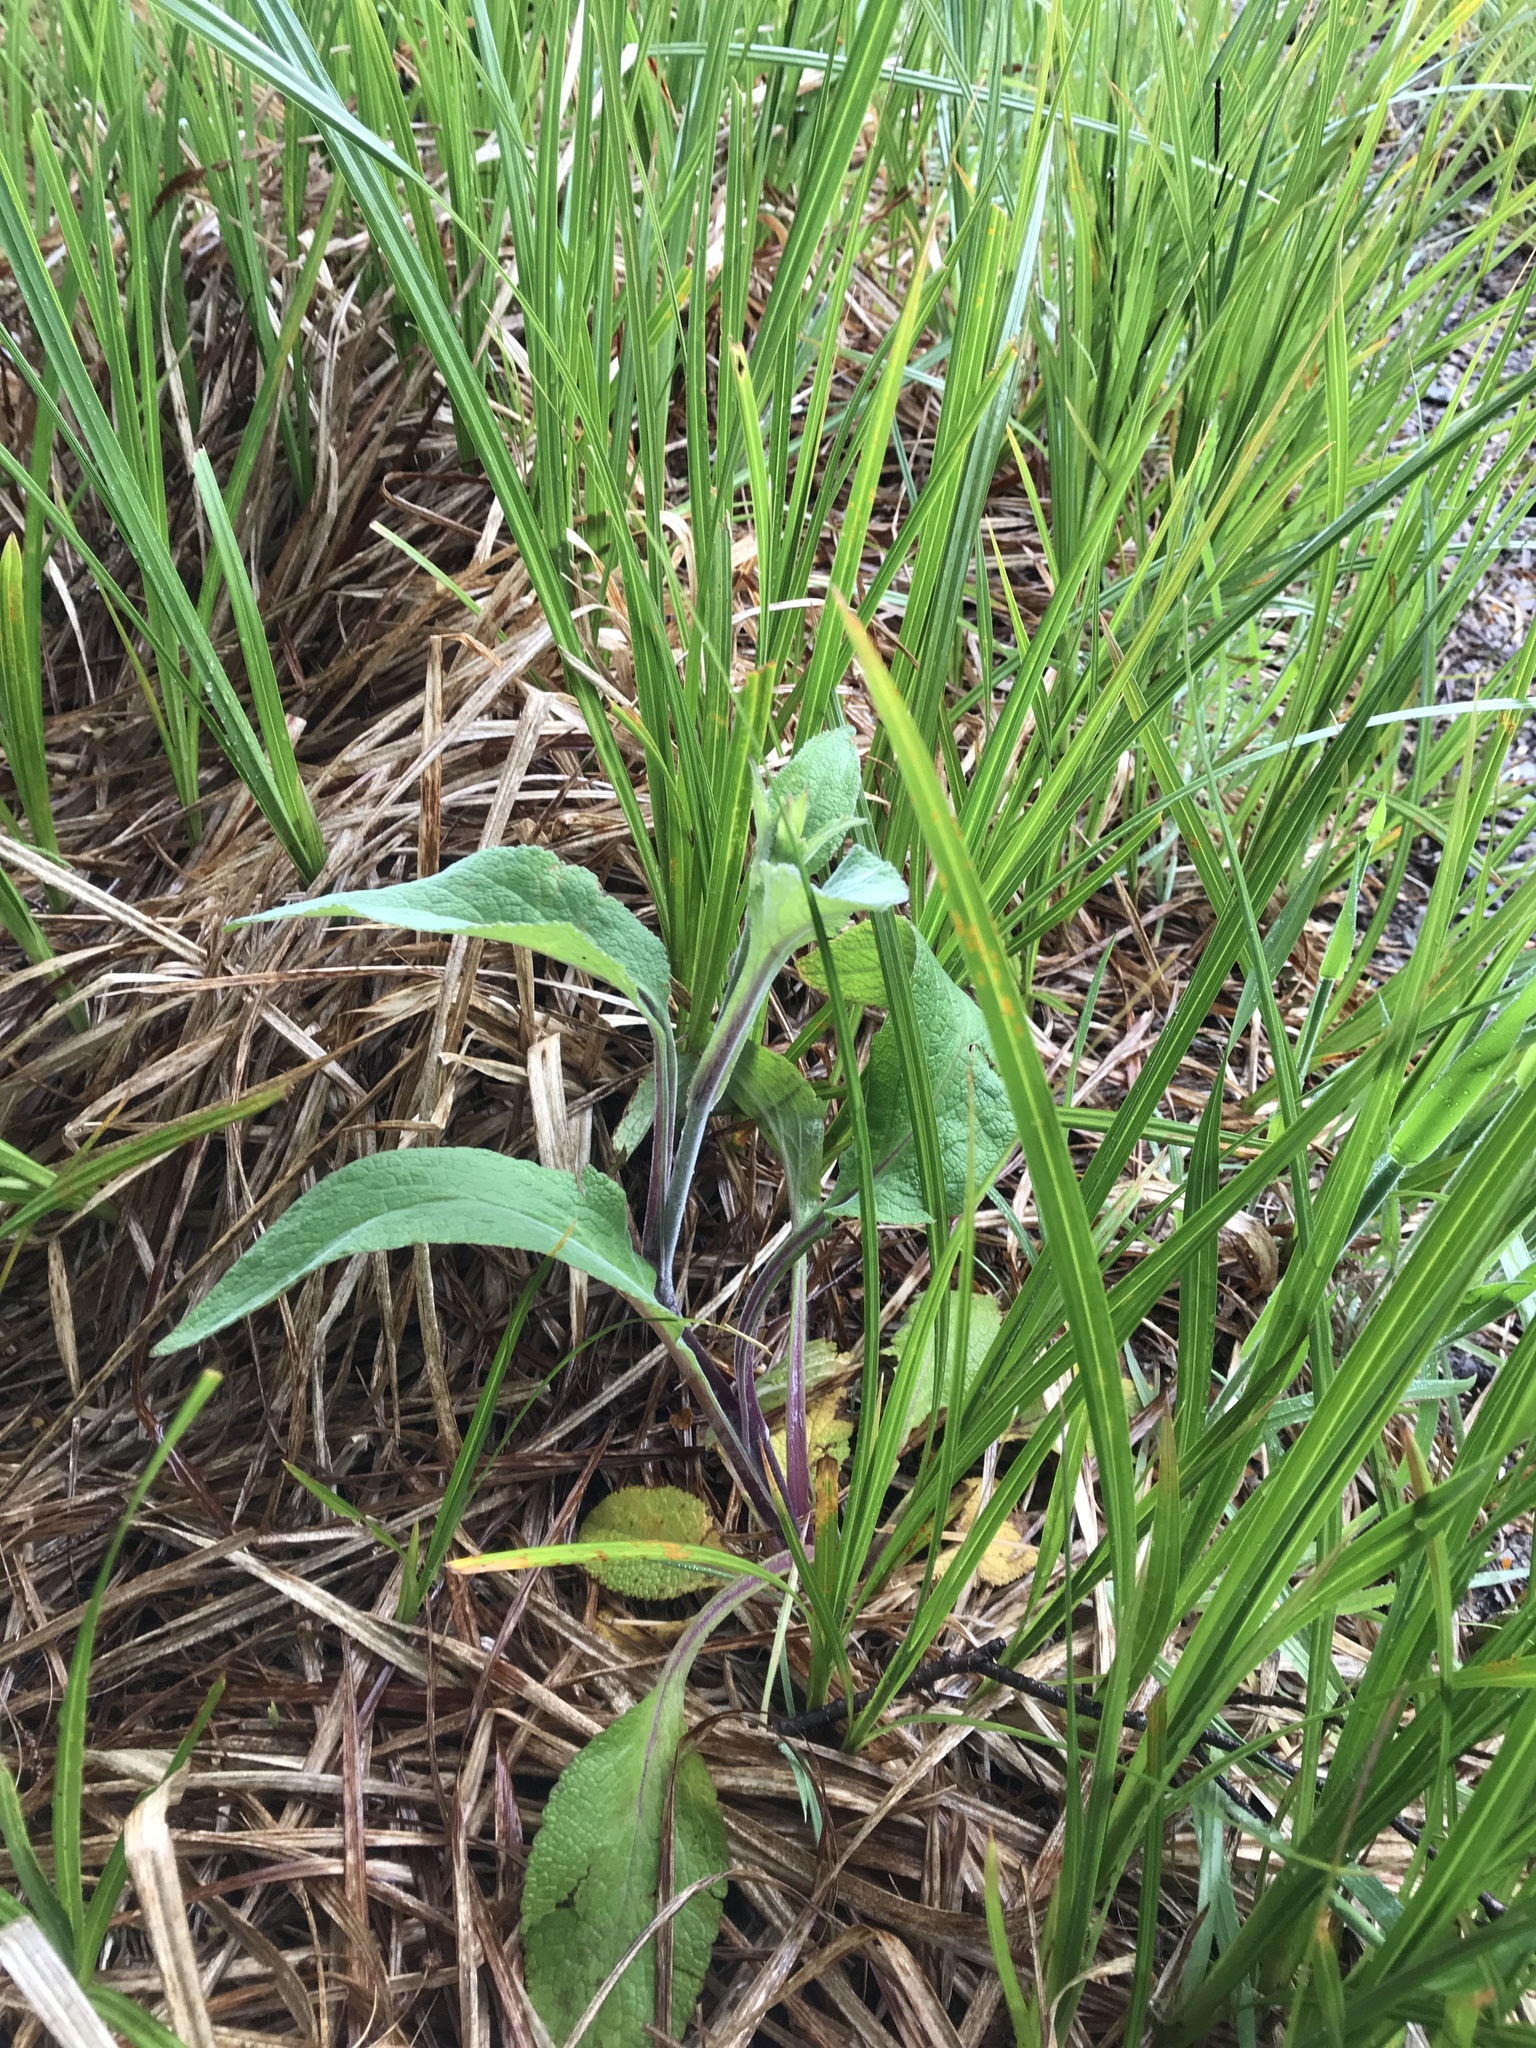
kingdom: Plantae
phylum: Tracheophyta
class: Magnoliopsida
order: Lamiales
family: Plantaginaceae
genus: Digitalis
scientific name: Digitalis purpurea
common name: Foxglove
